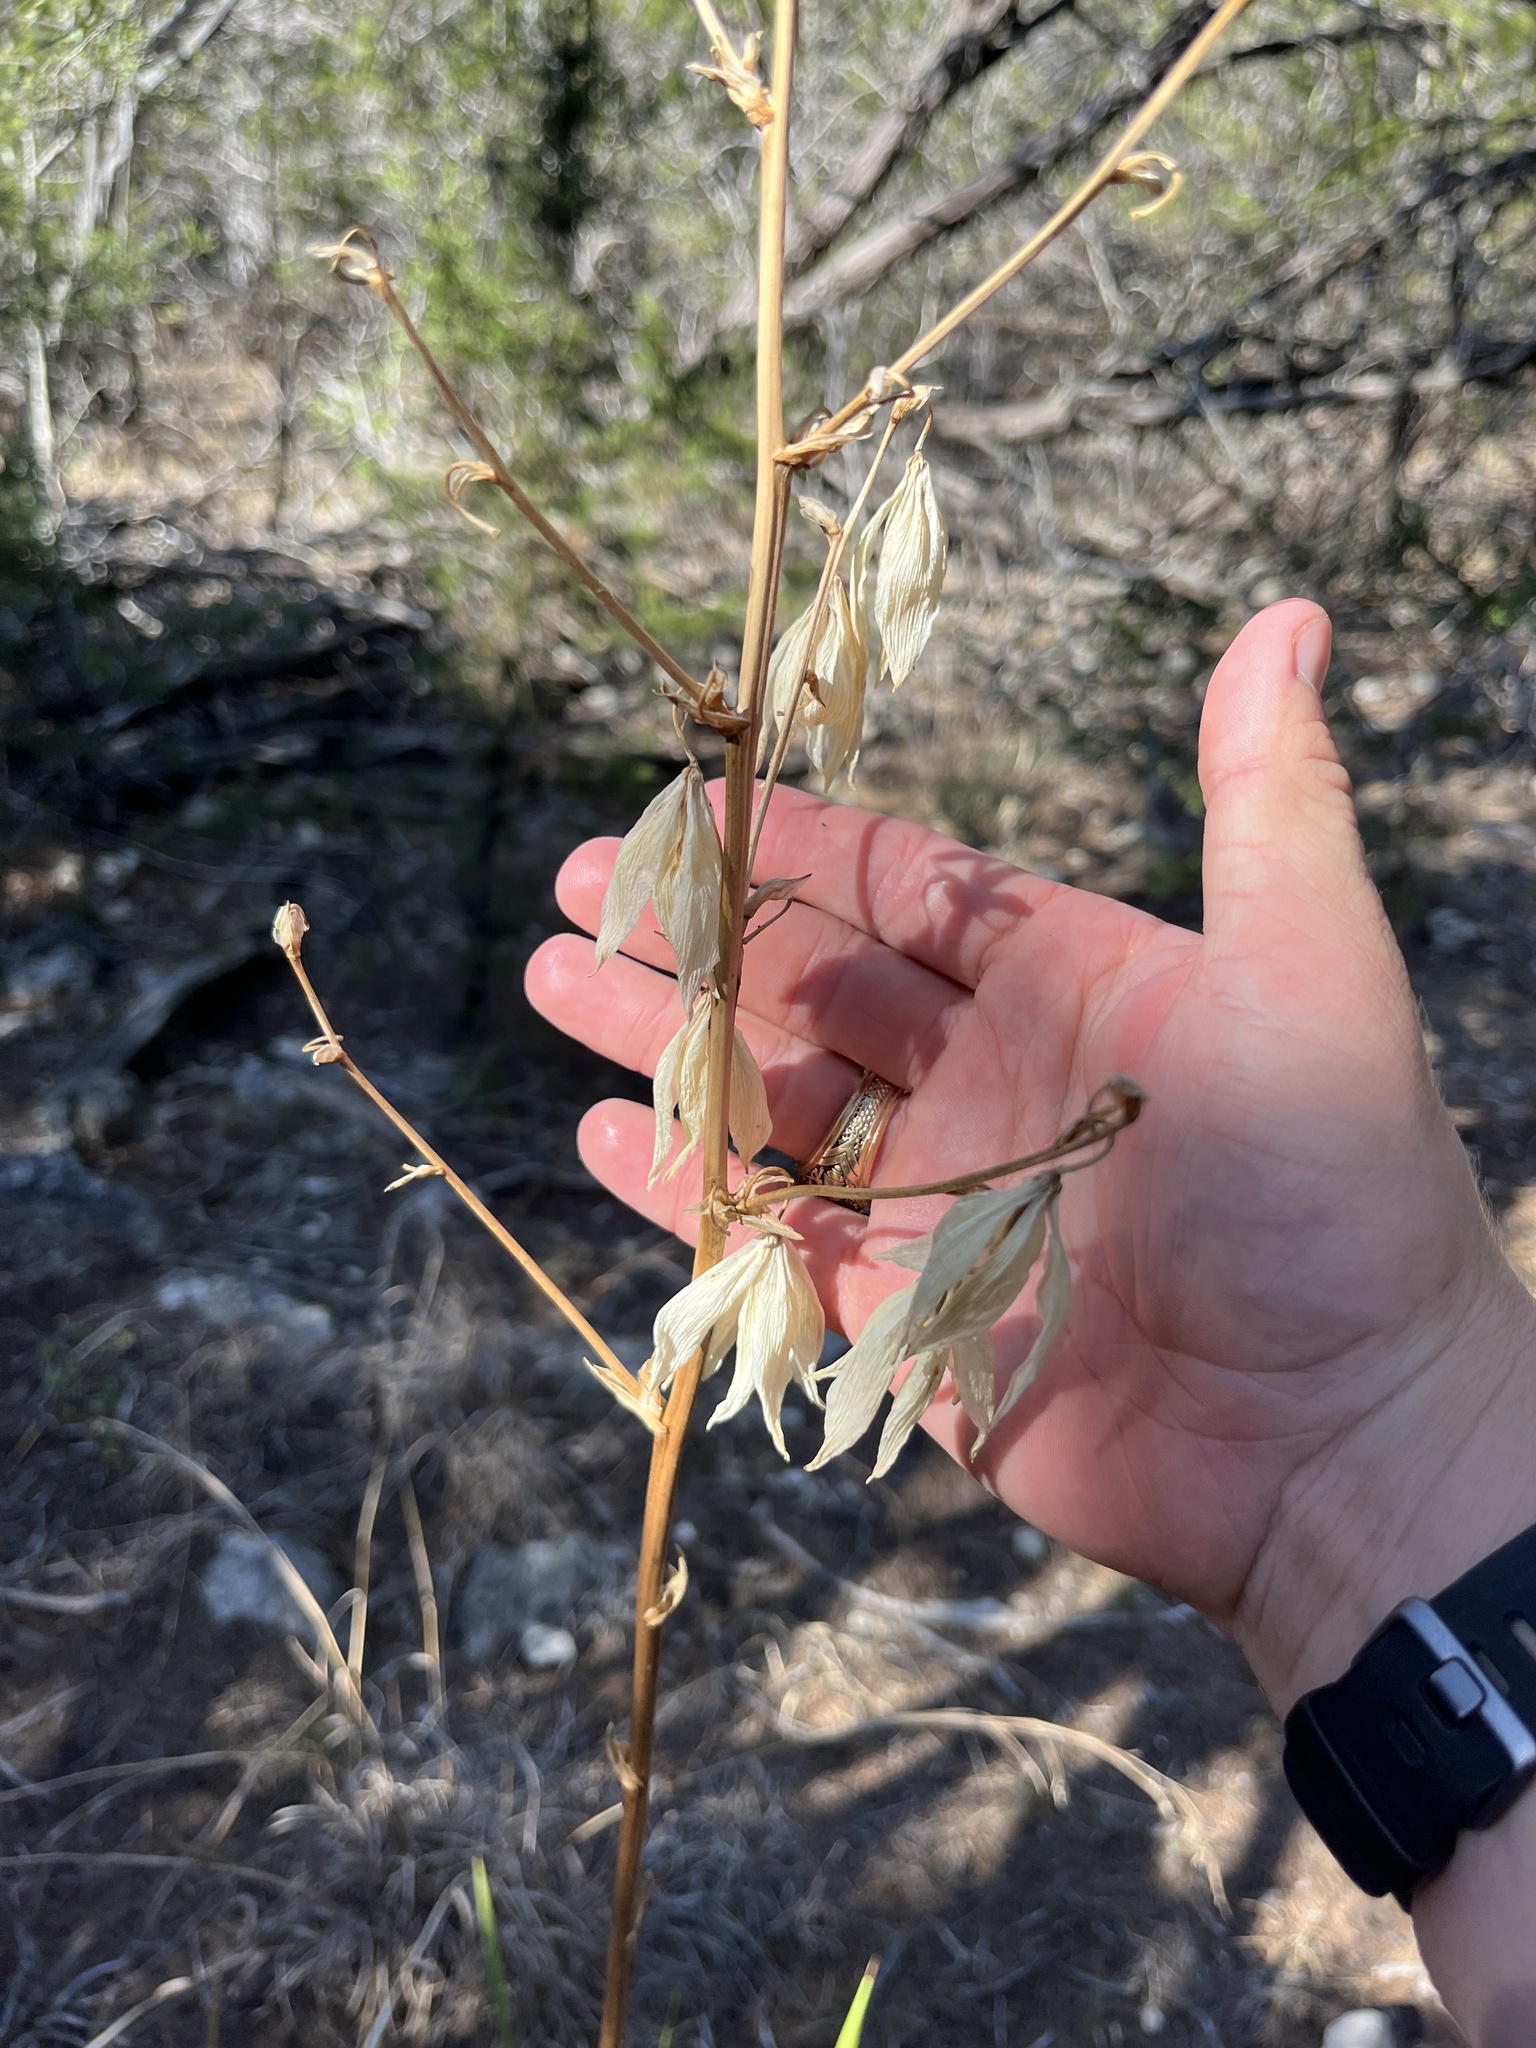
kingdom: Plantae
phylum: Tracheophyta
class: Liliopsida
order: Asparagales
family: Asparagaceae
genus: Yucca
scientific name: Yucca rupicola
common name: Twisted-leaf spanish-dagger
